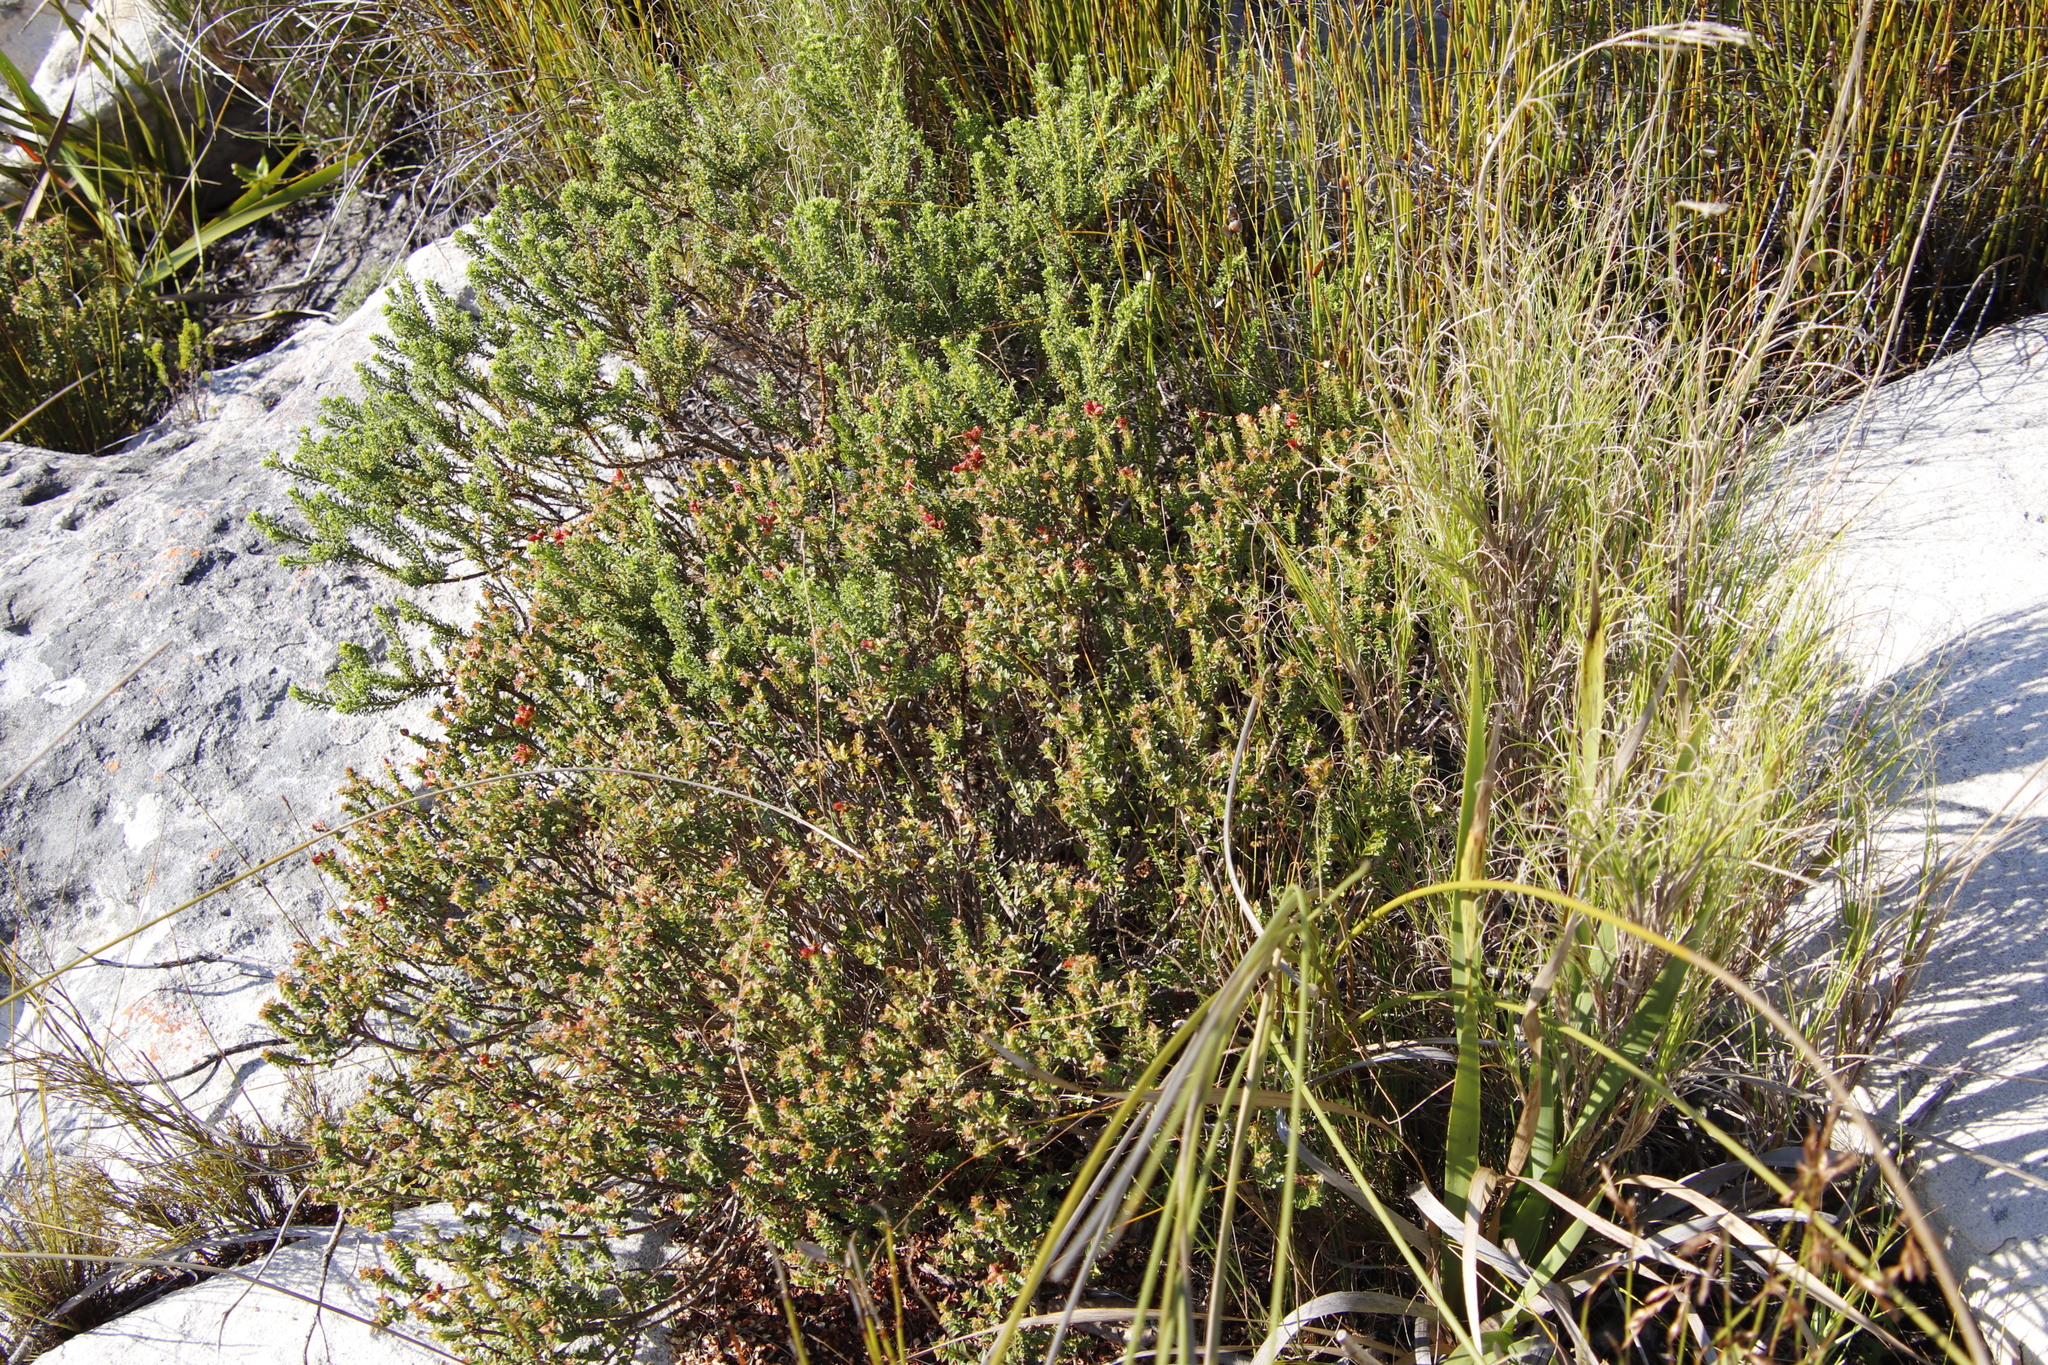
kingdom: Plantae
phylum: Tracheophyta
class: Magnoliopsida
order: Myrtales
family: Penaeaceae
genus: Penaea
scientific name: Penaea mucronata
